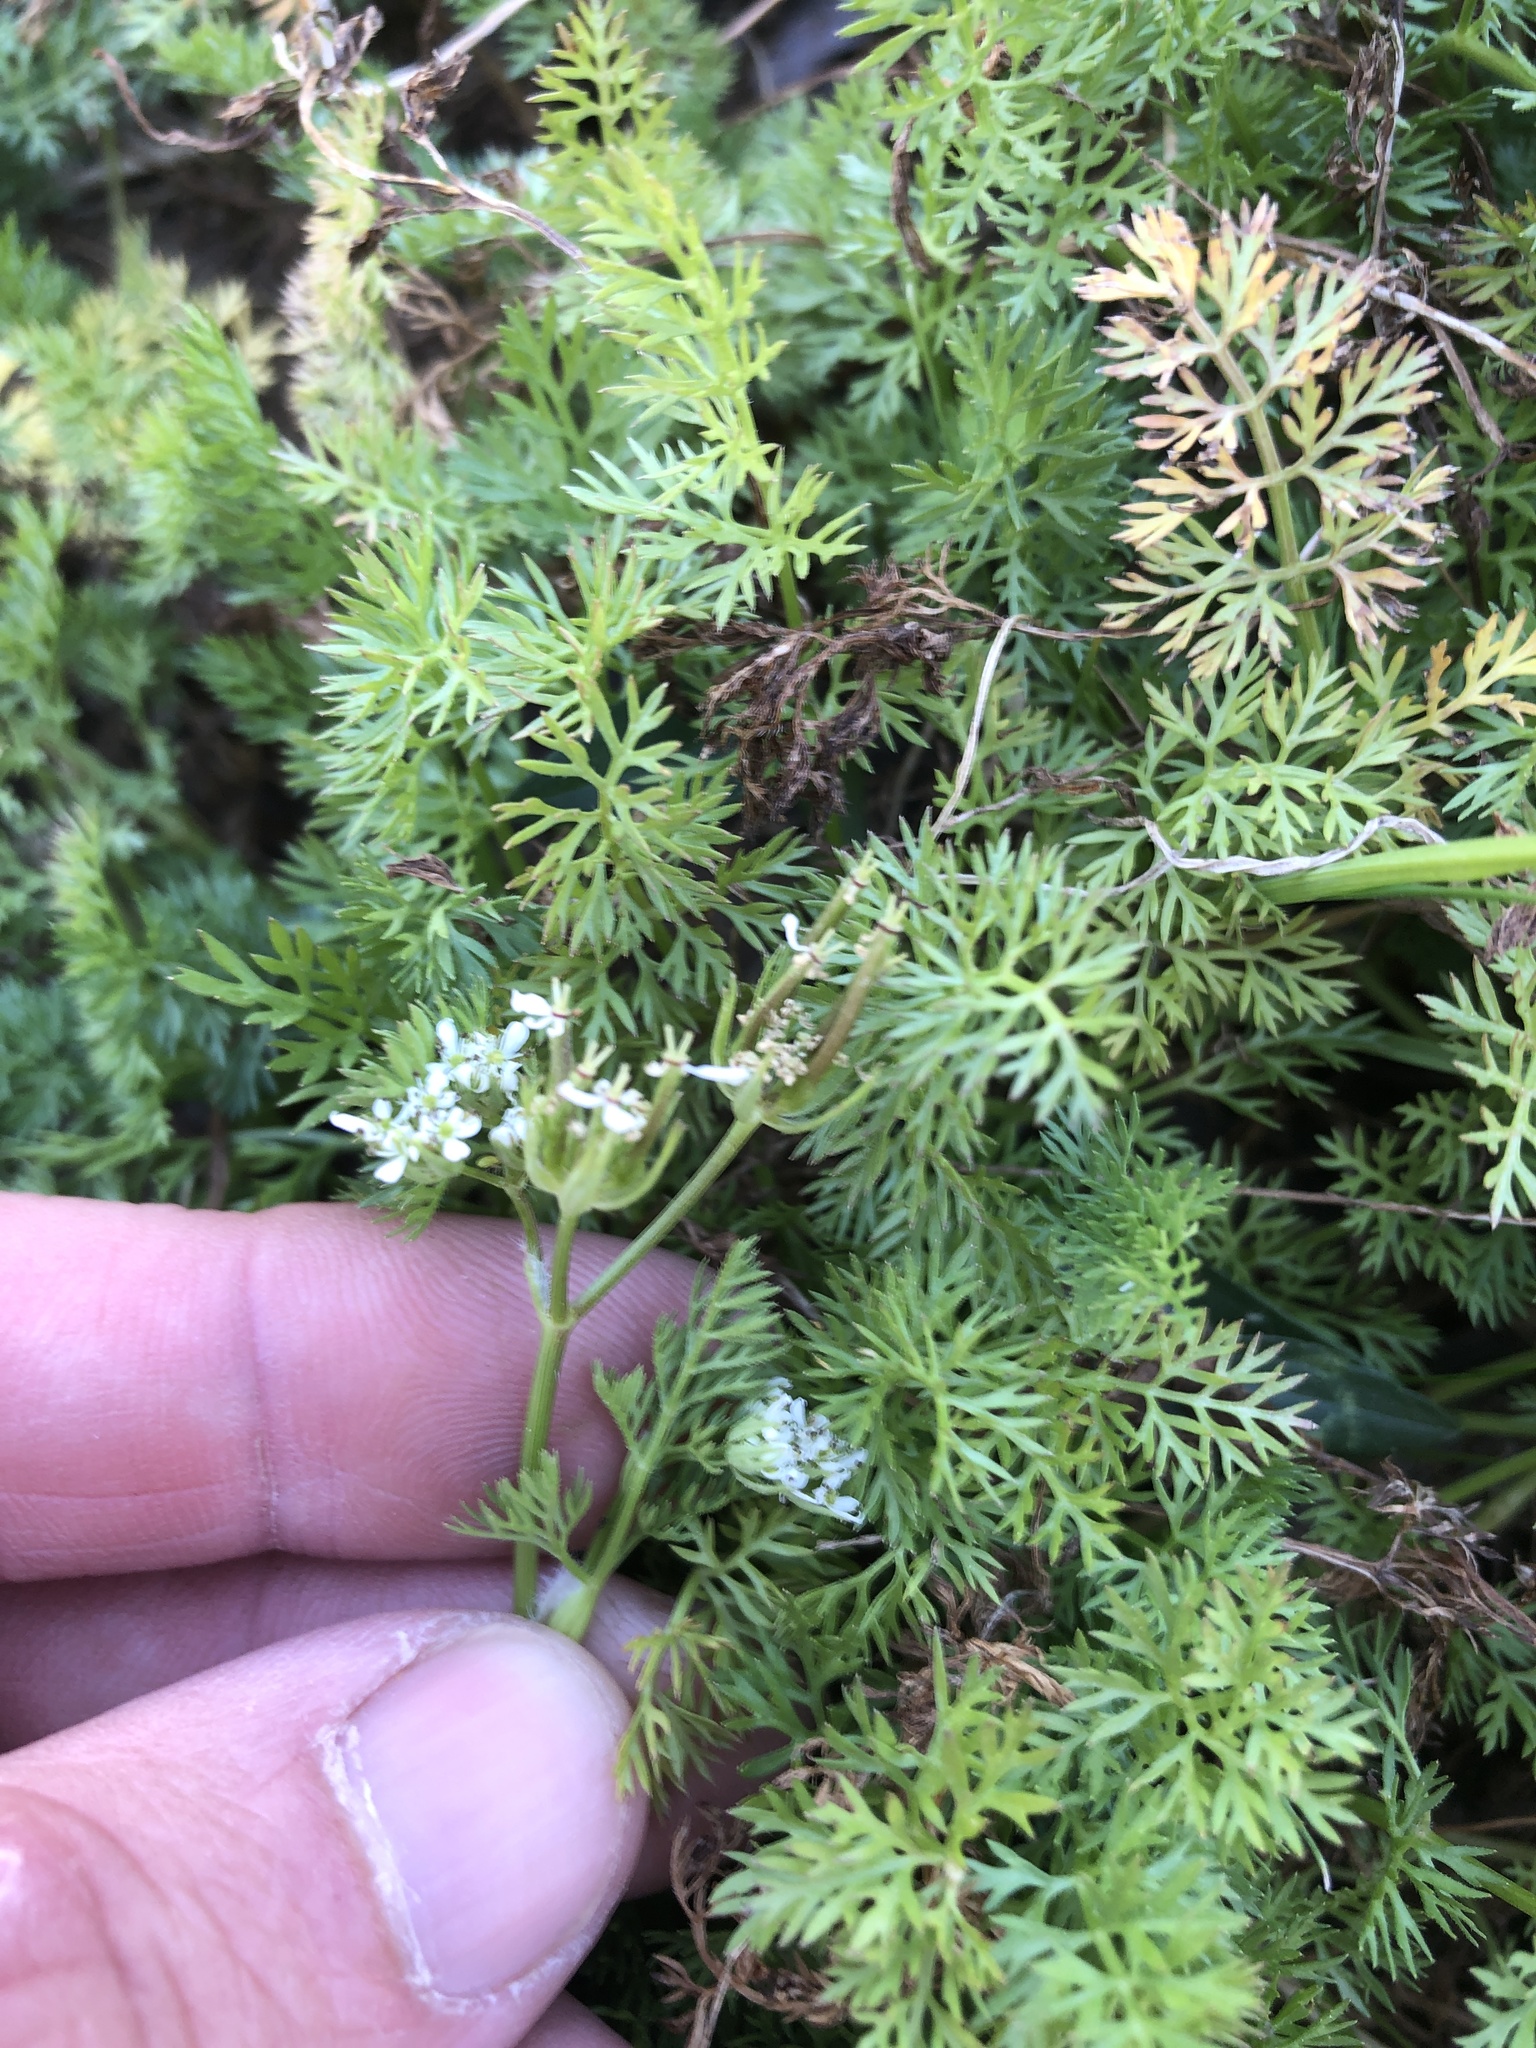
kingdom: Plantae
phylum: Tracheophyta
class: Magnoliopsida
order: Apiales
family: Apiaceae
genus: Scandix
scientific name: Scandix pecten-veneris
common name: Shepherd's-needle
